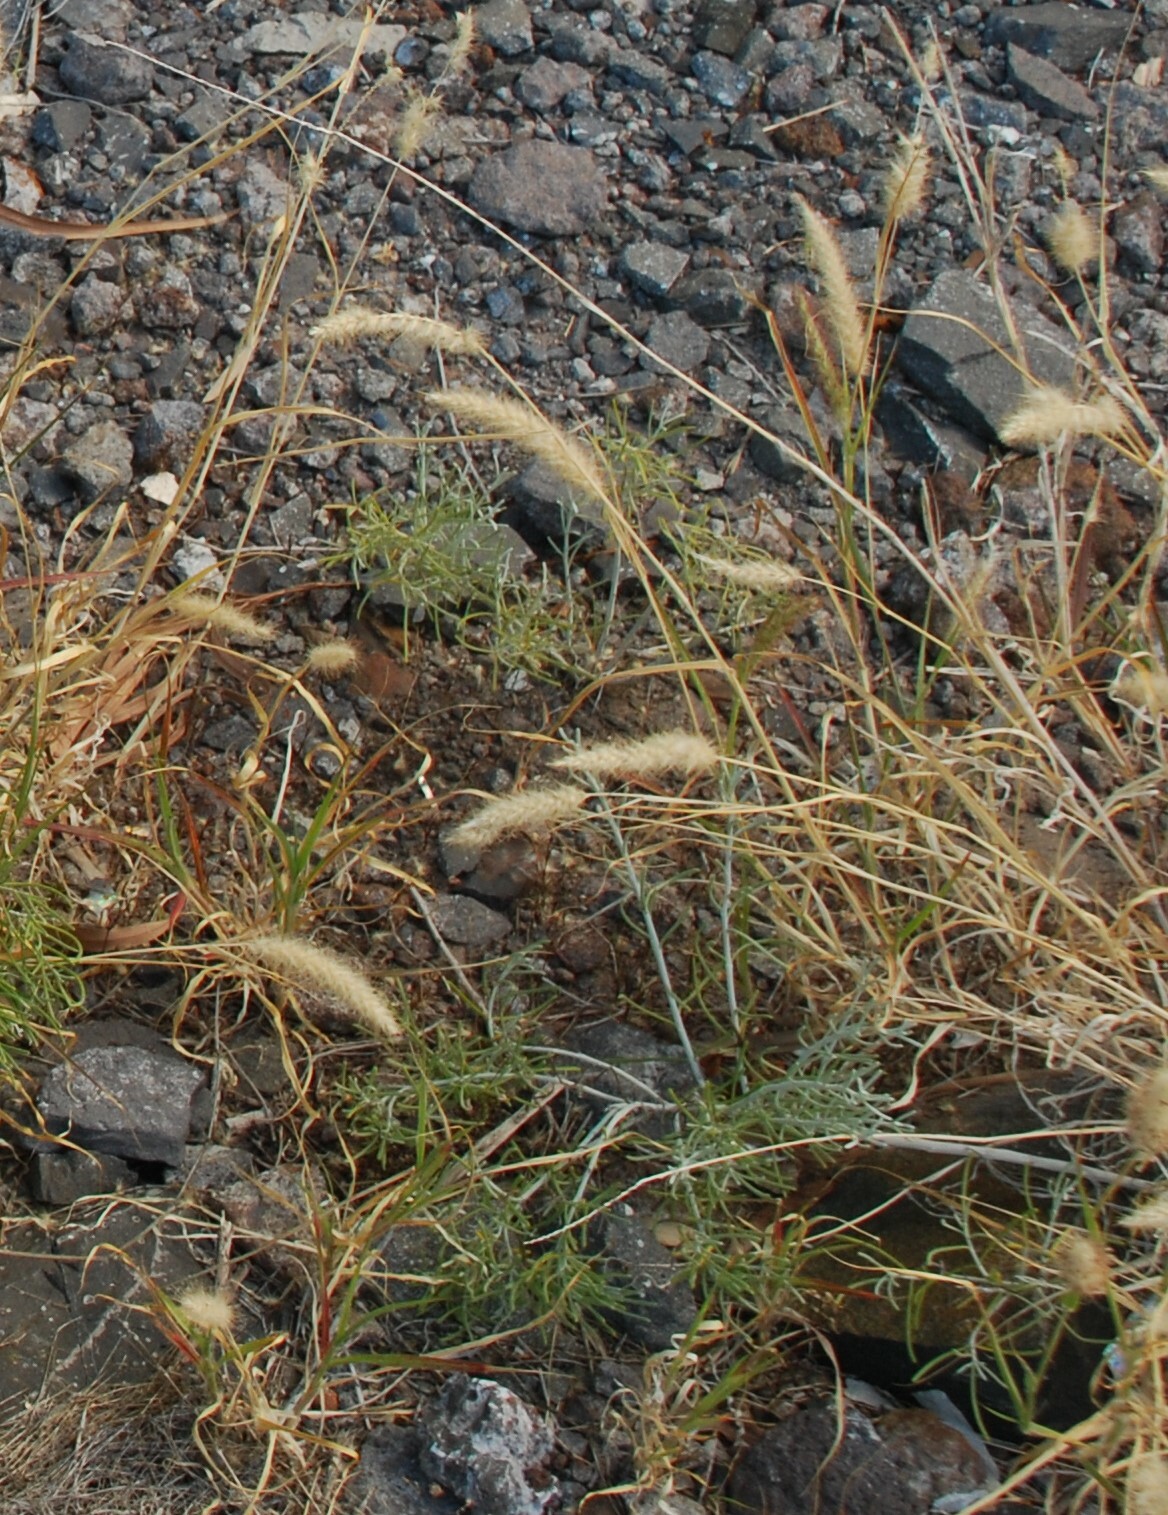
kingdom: Plantae
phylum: Tracheophyta
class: Liliopsida
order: Poales
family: Poaceae
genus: Cenchrus
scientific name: Cenchrus ciliaris
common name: Buffelgrass
